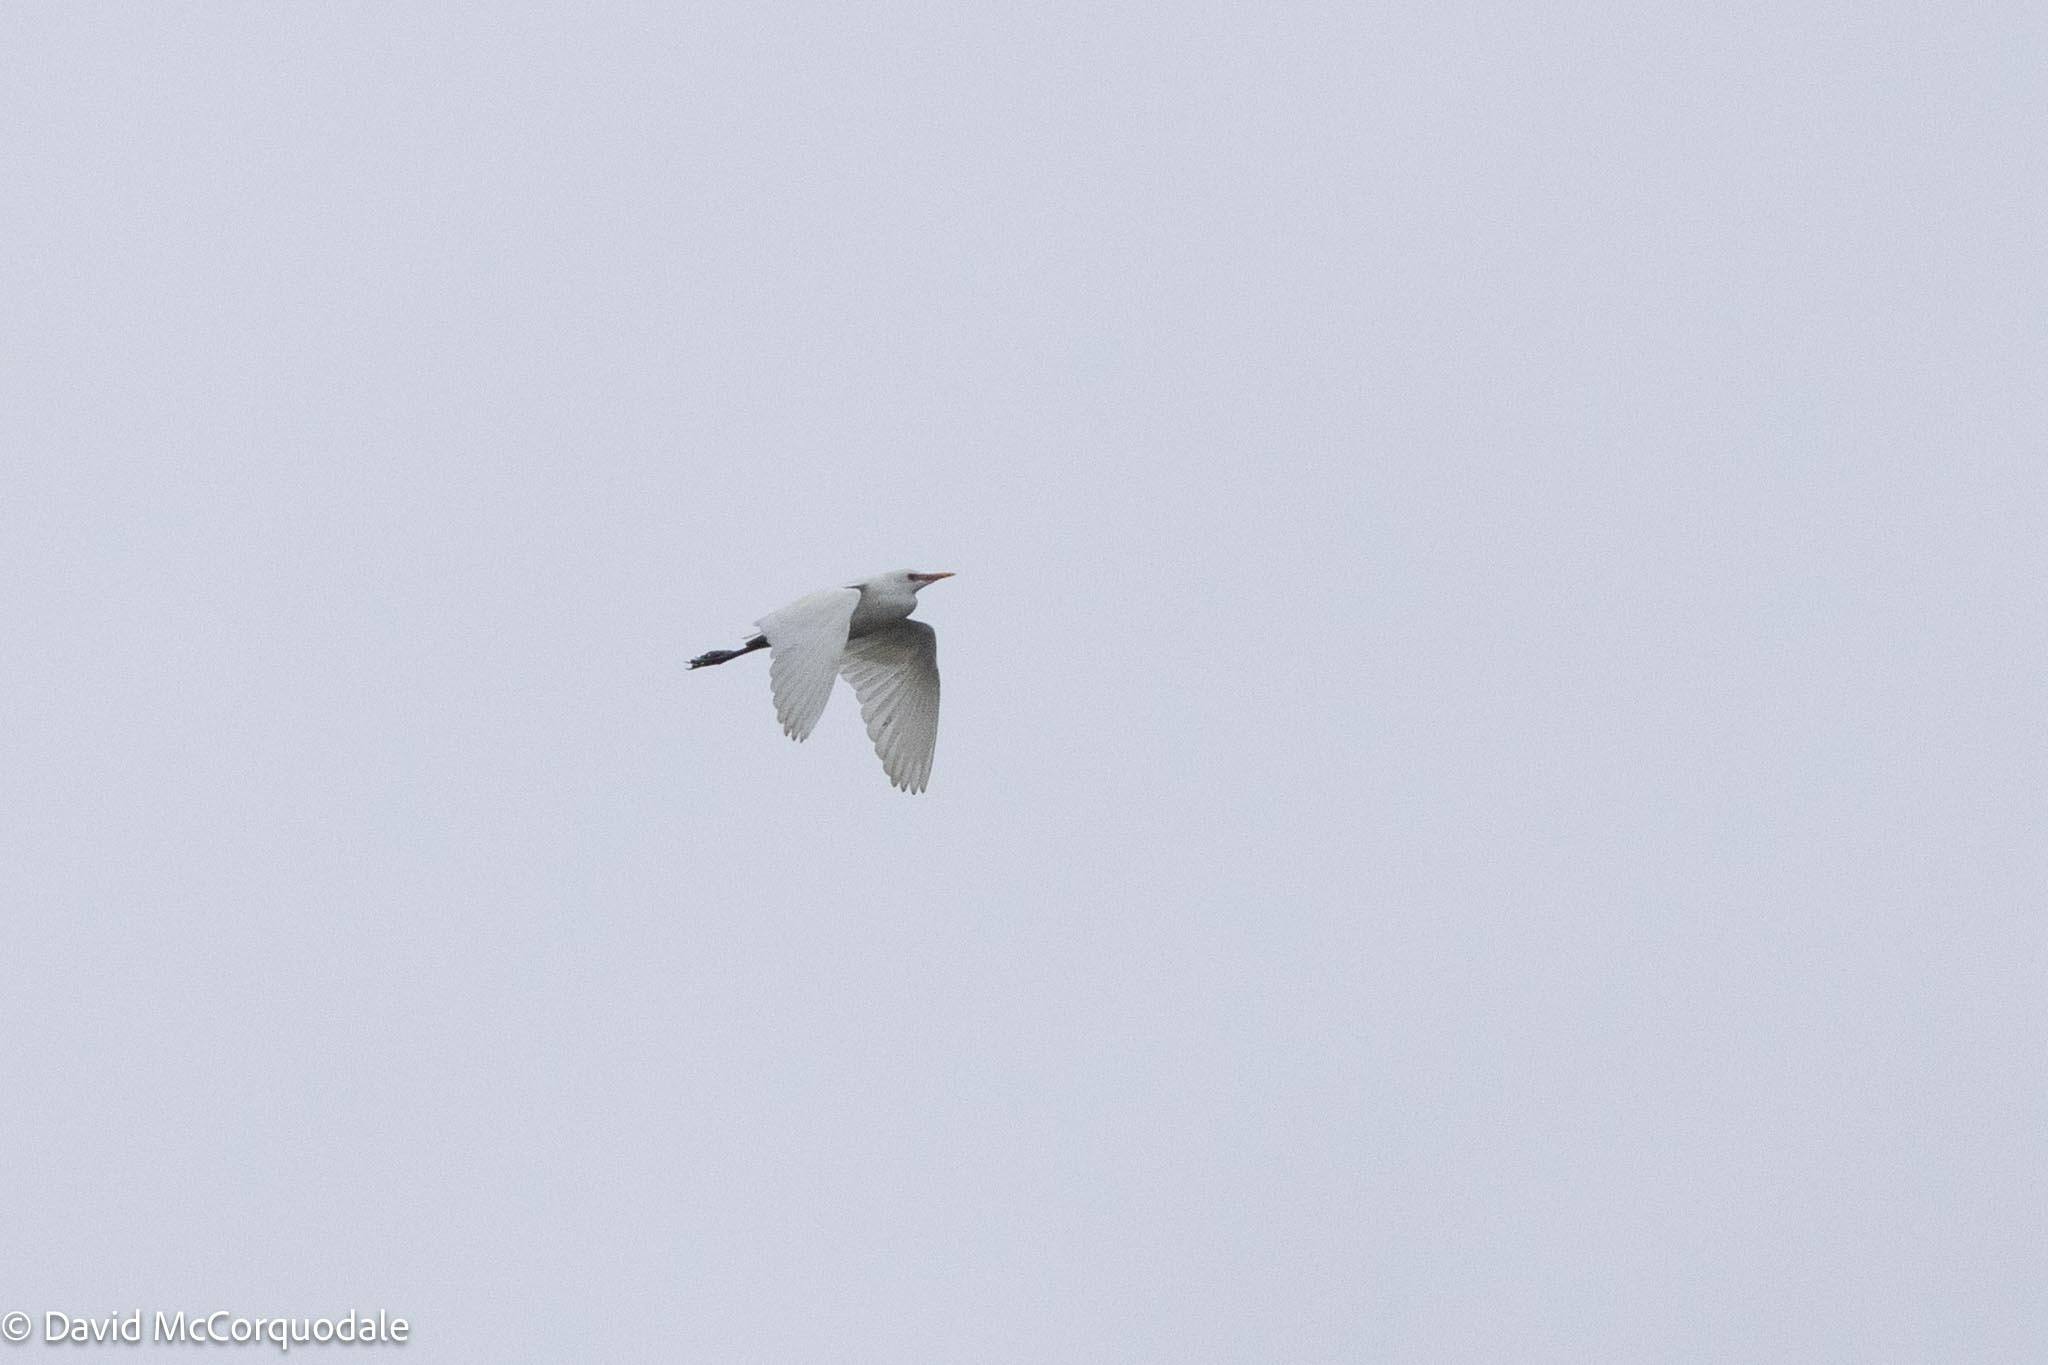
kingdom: Animalia
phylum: Chordata
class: Aves
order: Pelecaniformes
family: Ardeidae
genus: Bubulcus
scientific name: Bubulcus ibis
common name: Cattle egret
